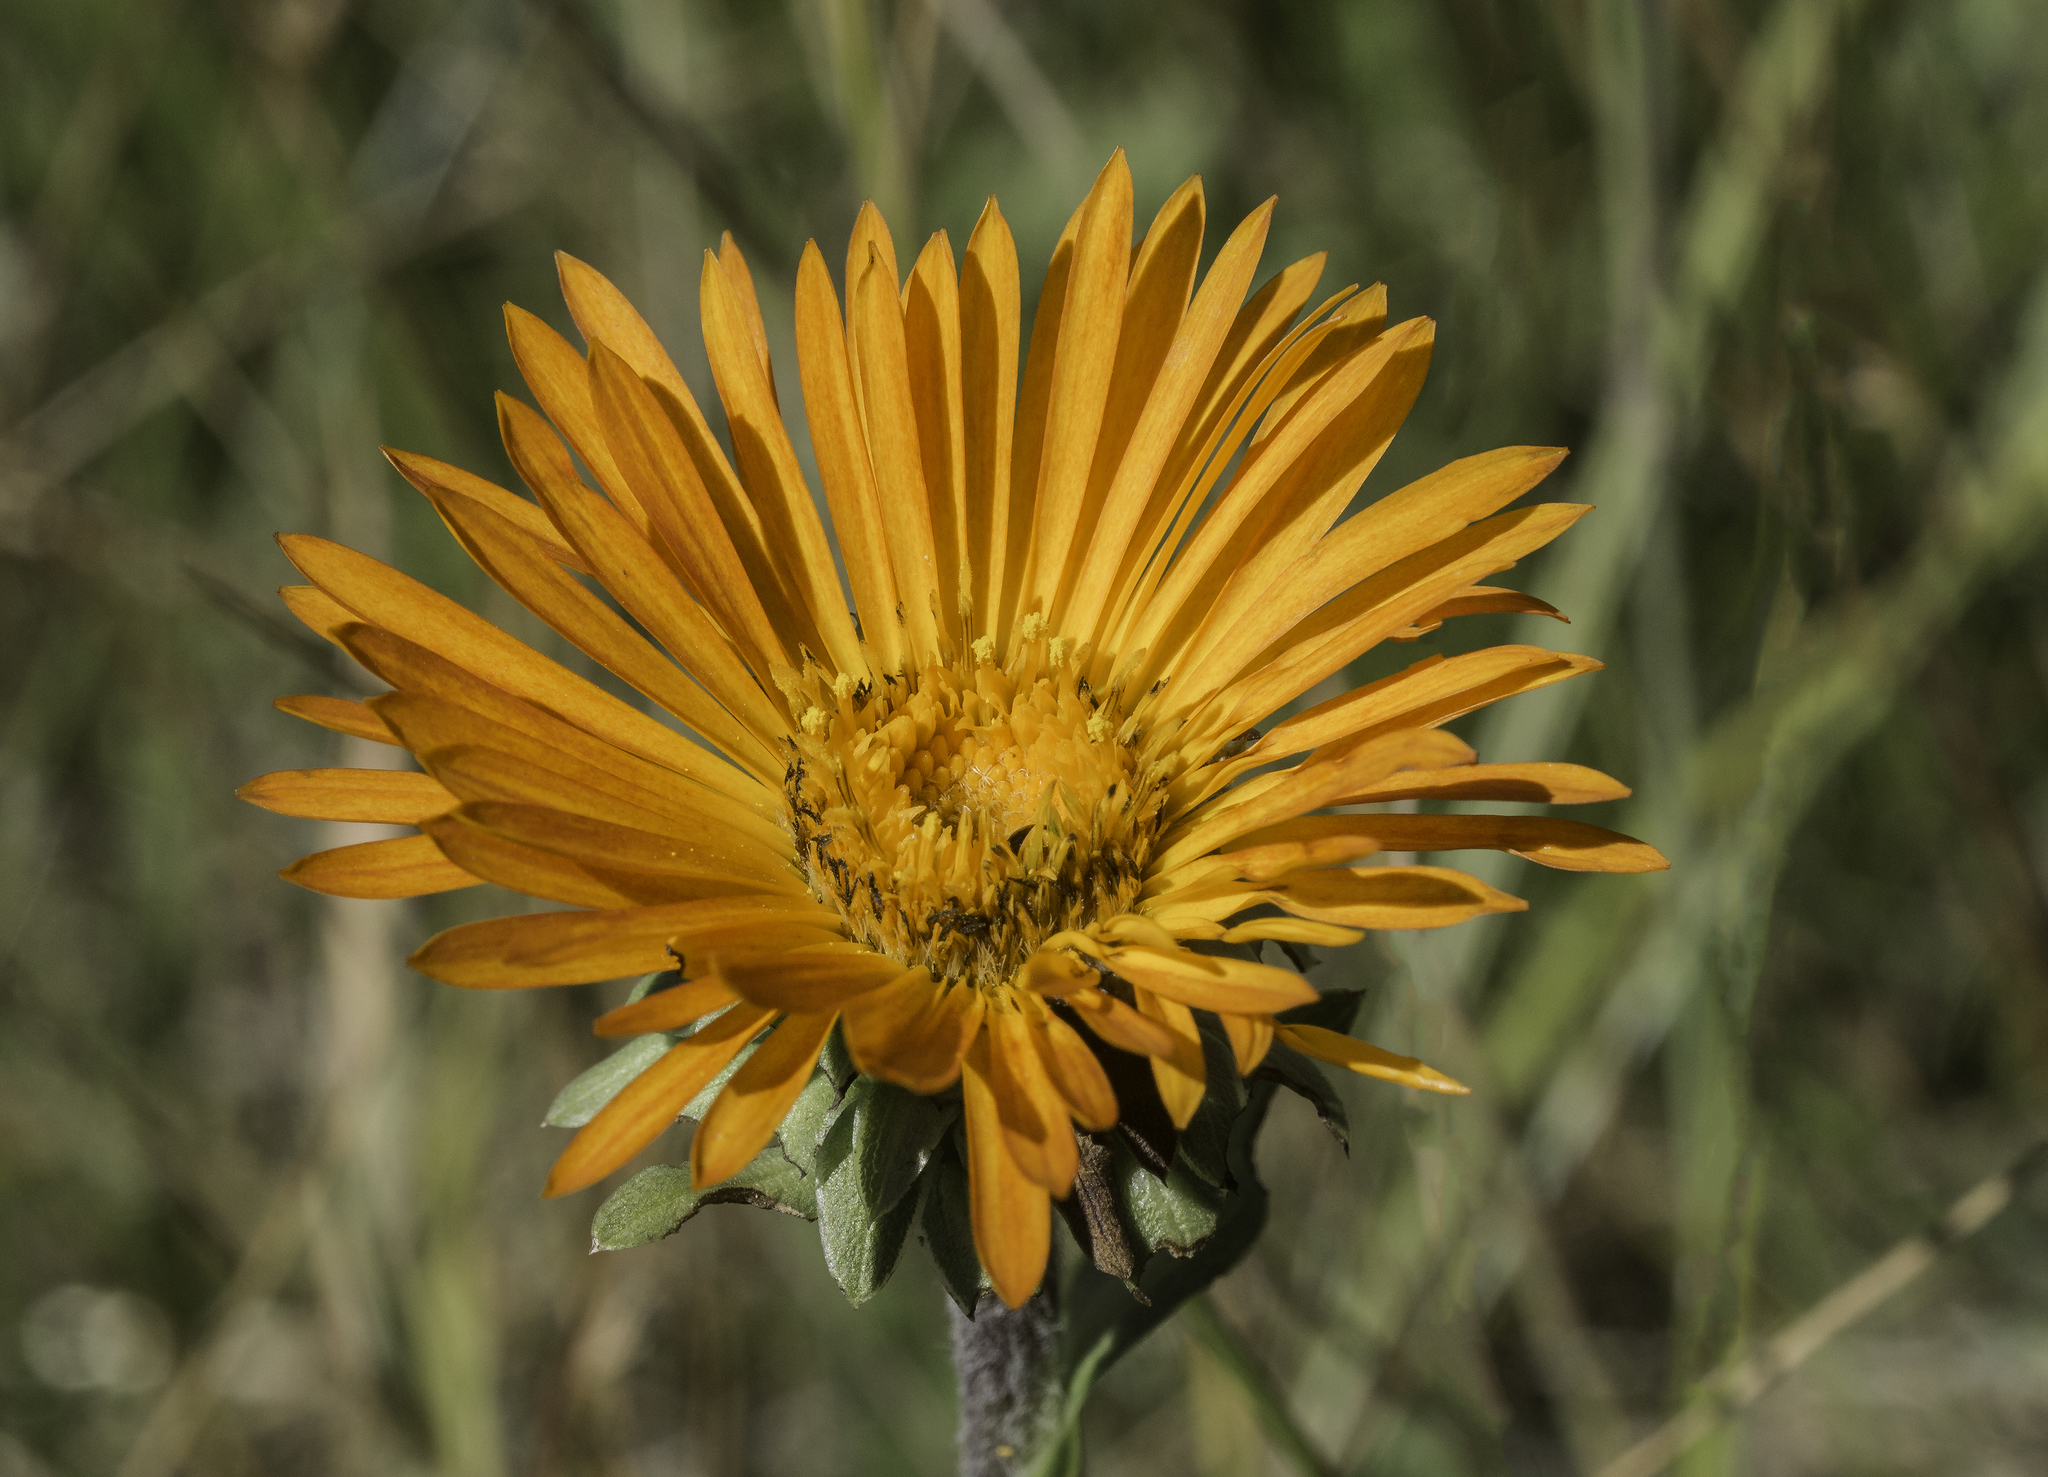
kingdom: Plantae
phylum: Tracheophyta
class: Magnoliopsida
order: Asterales
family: Asteraceae
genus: Pyrrocoma
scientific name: Pyrrocoma crocea
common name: Curly-head goldenweed
